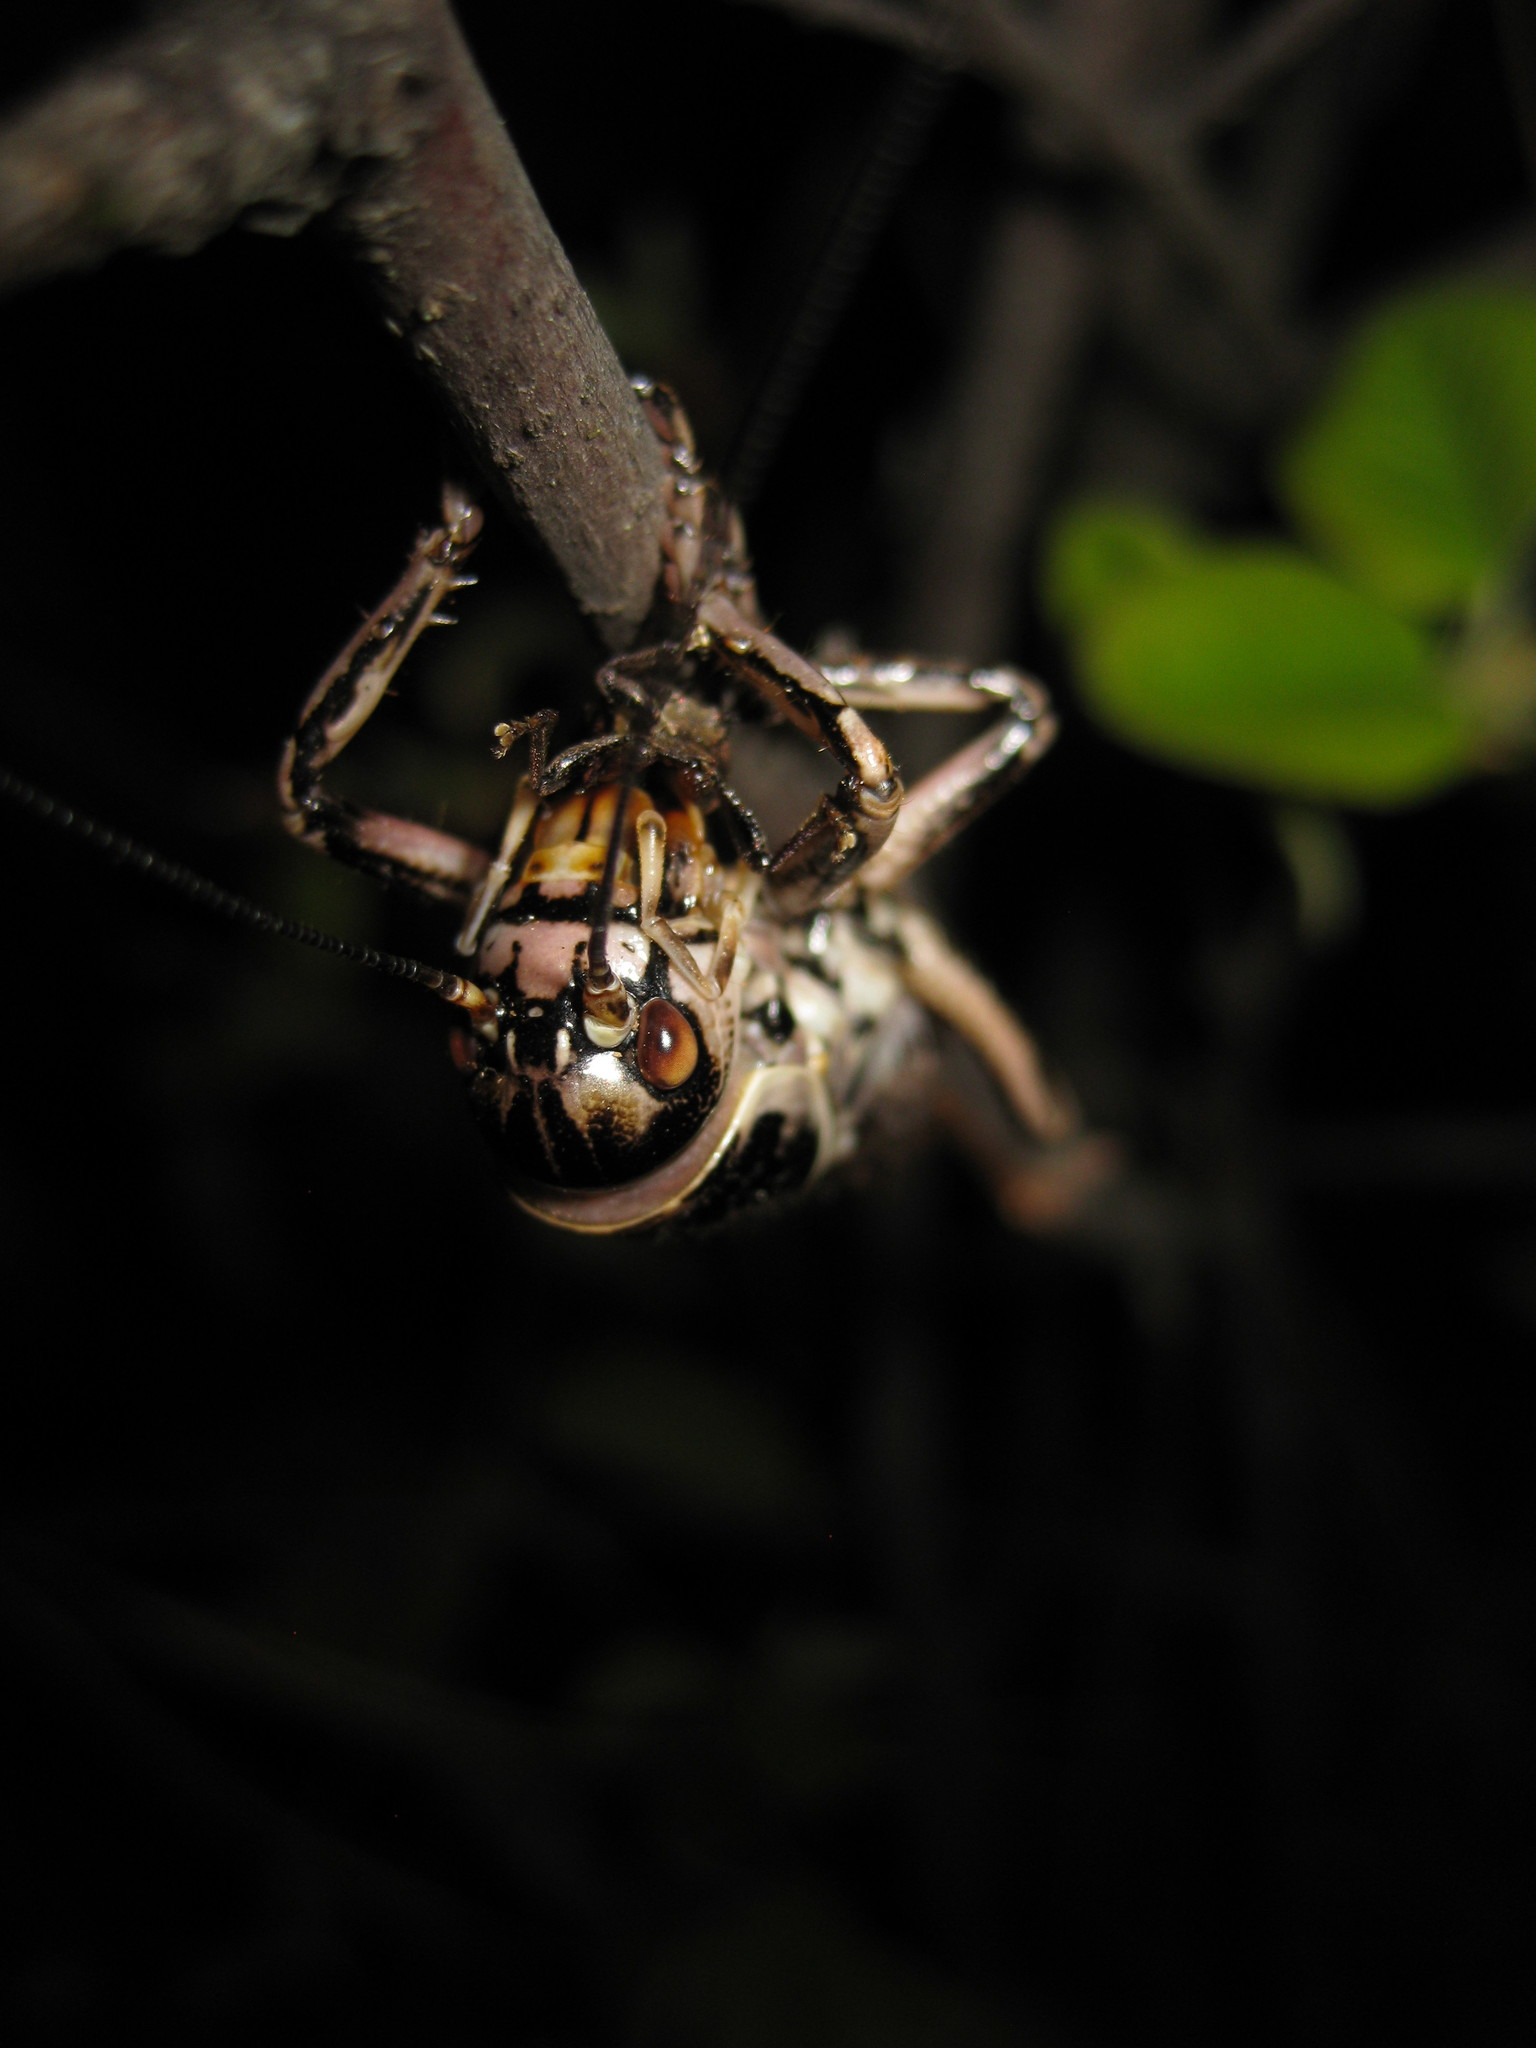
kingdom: Animalia
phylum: Arthropoda
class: Insecta
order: Orthoptera
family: Prophalangopsidae
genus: Cyphoderris
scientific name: Cyphoderris monstrosa
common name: Great grig
